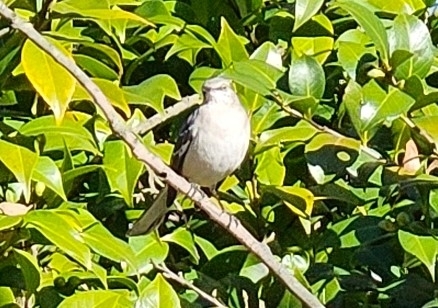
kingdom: Animalia
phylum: Chordata
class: Aves
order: Passeriformes
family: Mimidae
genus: Mimus
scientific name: Mimus polyglottos
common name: Northern mockingbird
